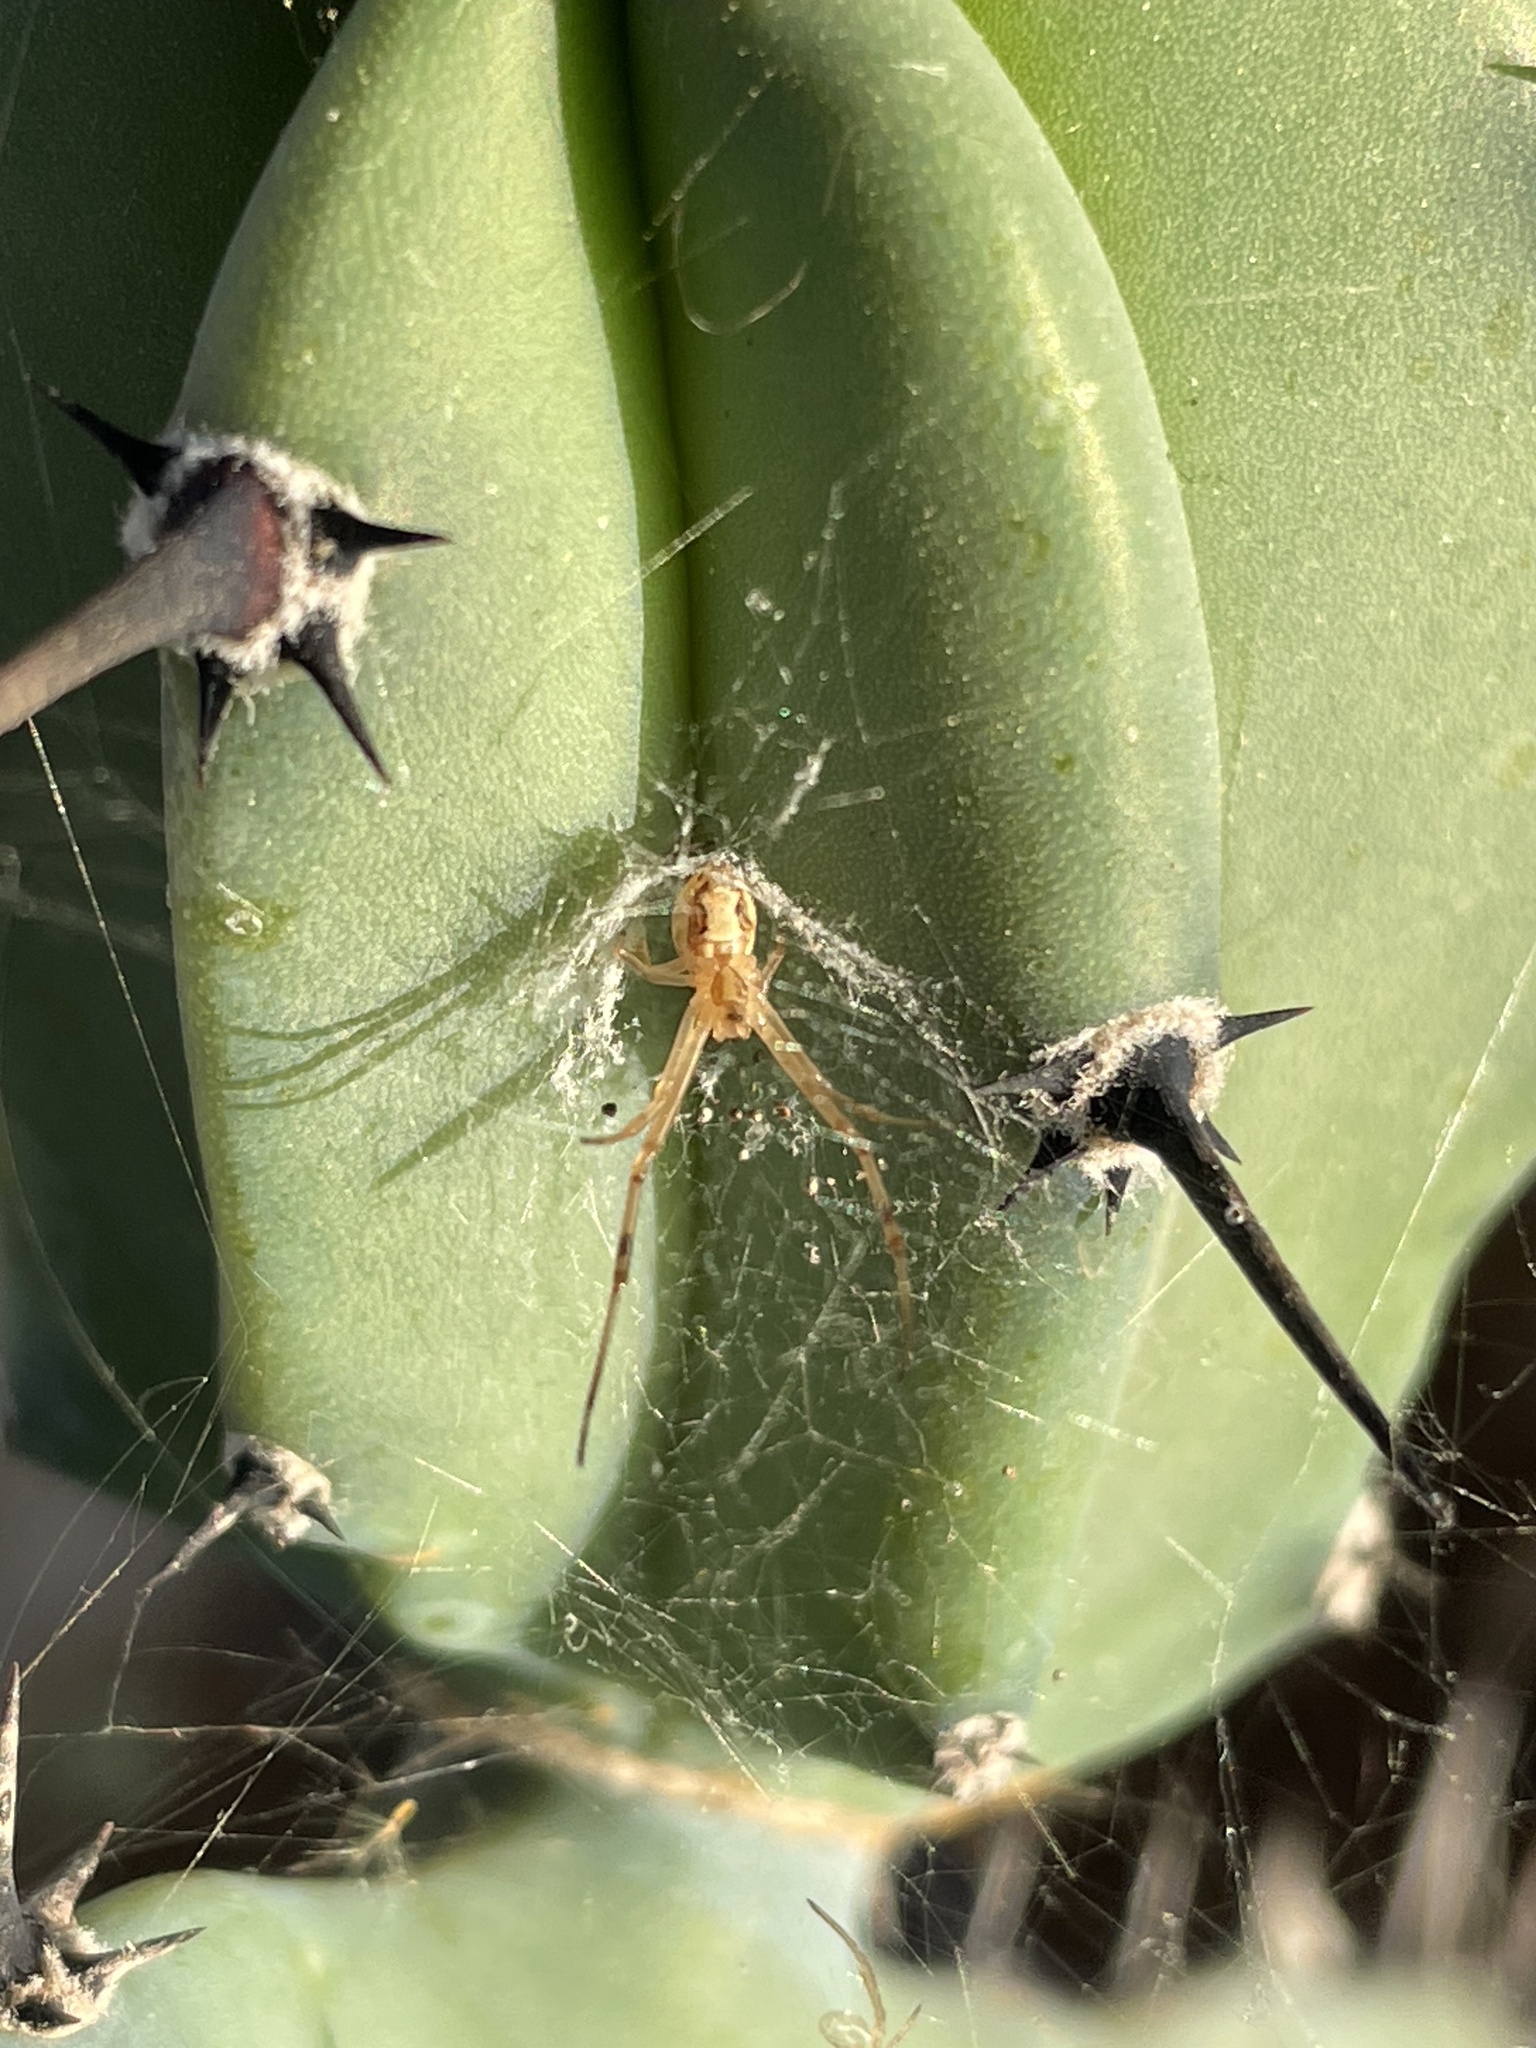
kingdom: Animalia
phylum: Arthropoda
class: Arachnida
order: Araneae
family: Theridiidae
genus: Latrodectus
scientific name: Latrodectus hesperus
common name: Western black widow
